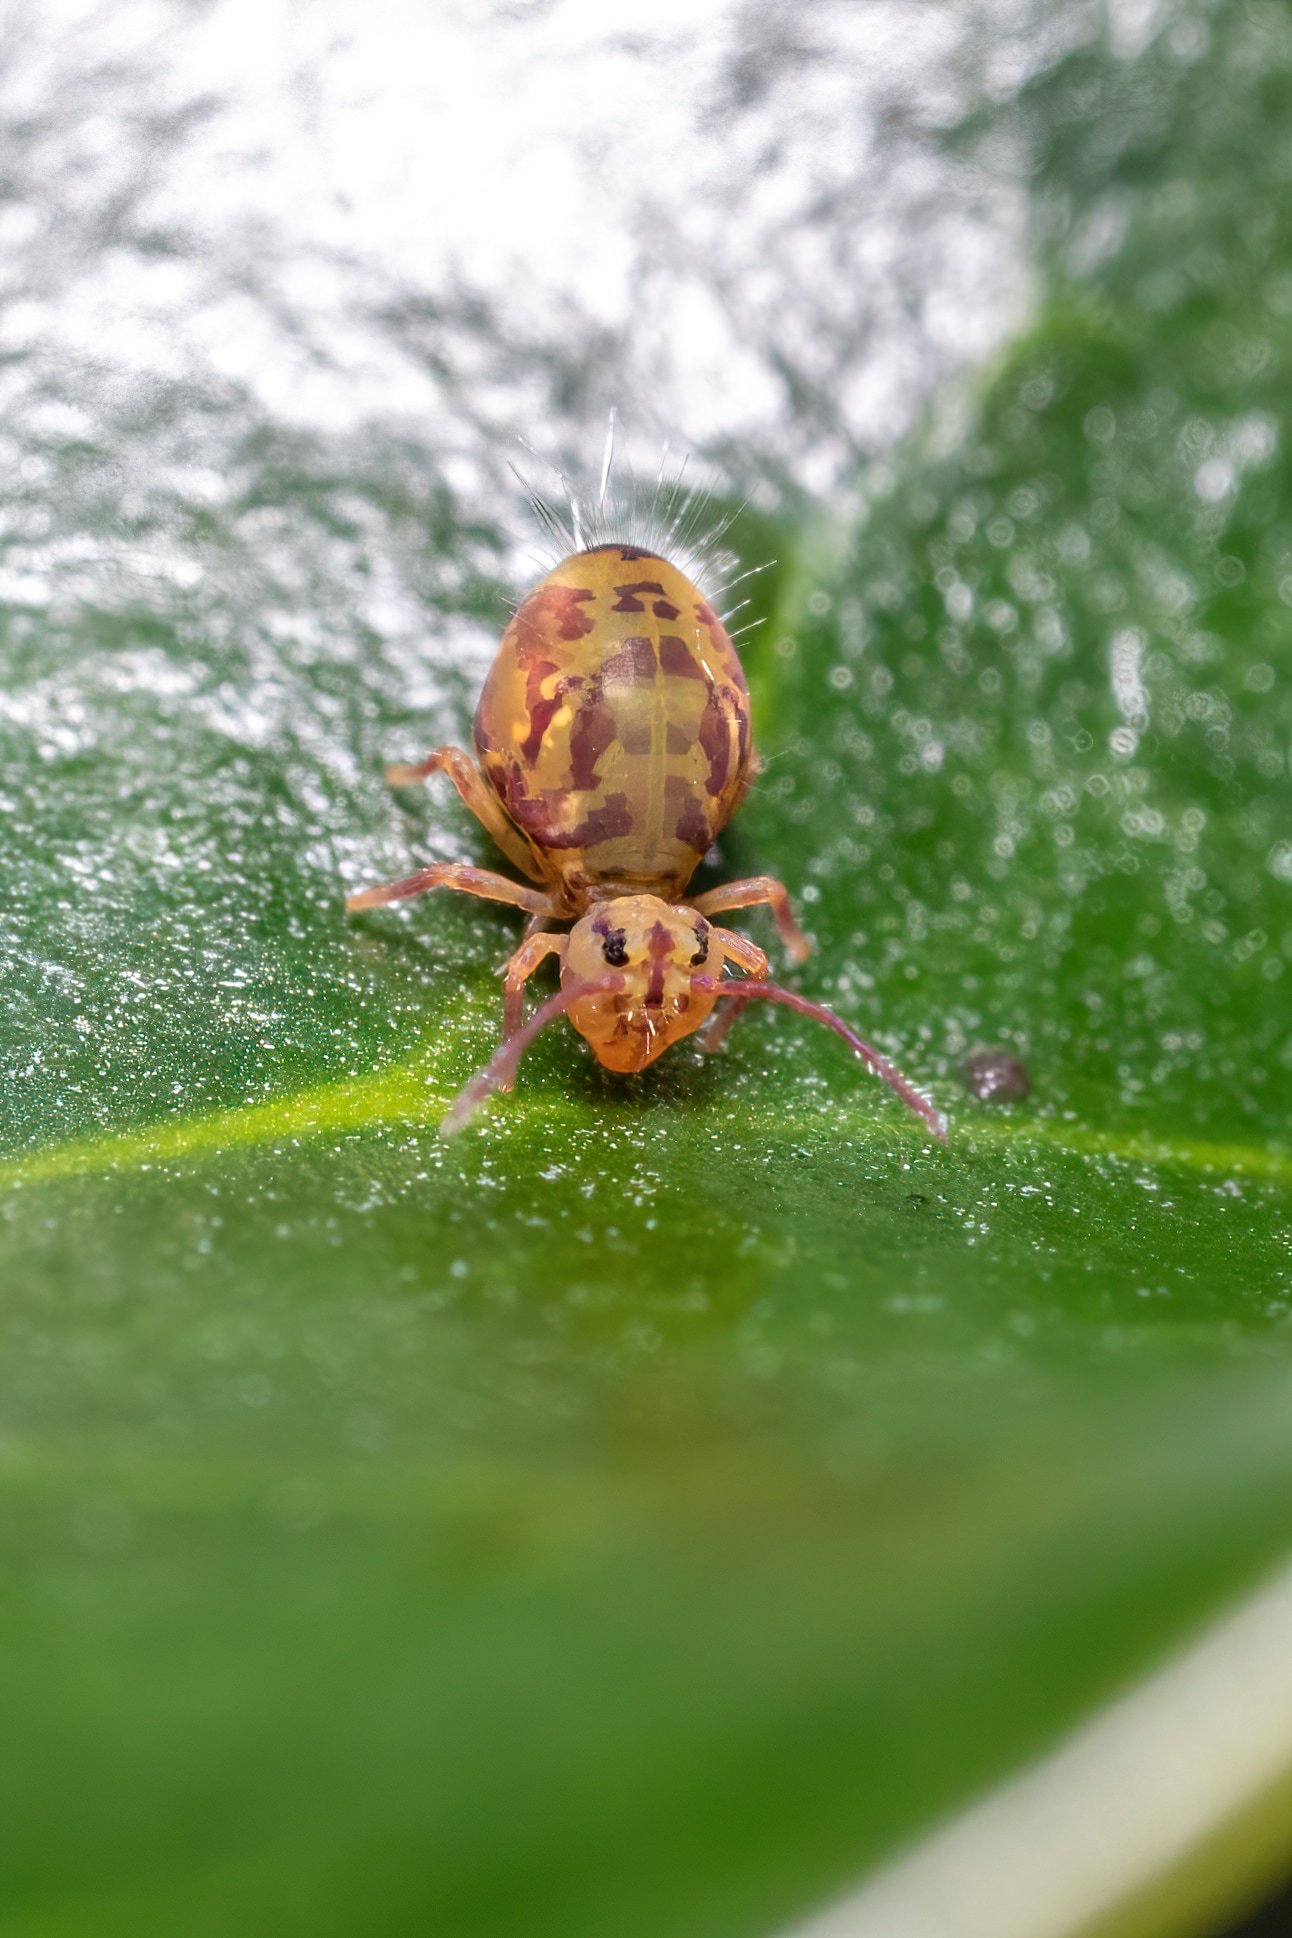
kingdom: Animalia
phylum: Arthropoda
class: Collembola
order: Symphypleona
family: Dicyrtomidae
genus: Dicyrtomina
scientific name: Dicyrtomina ornata
